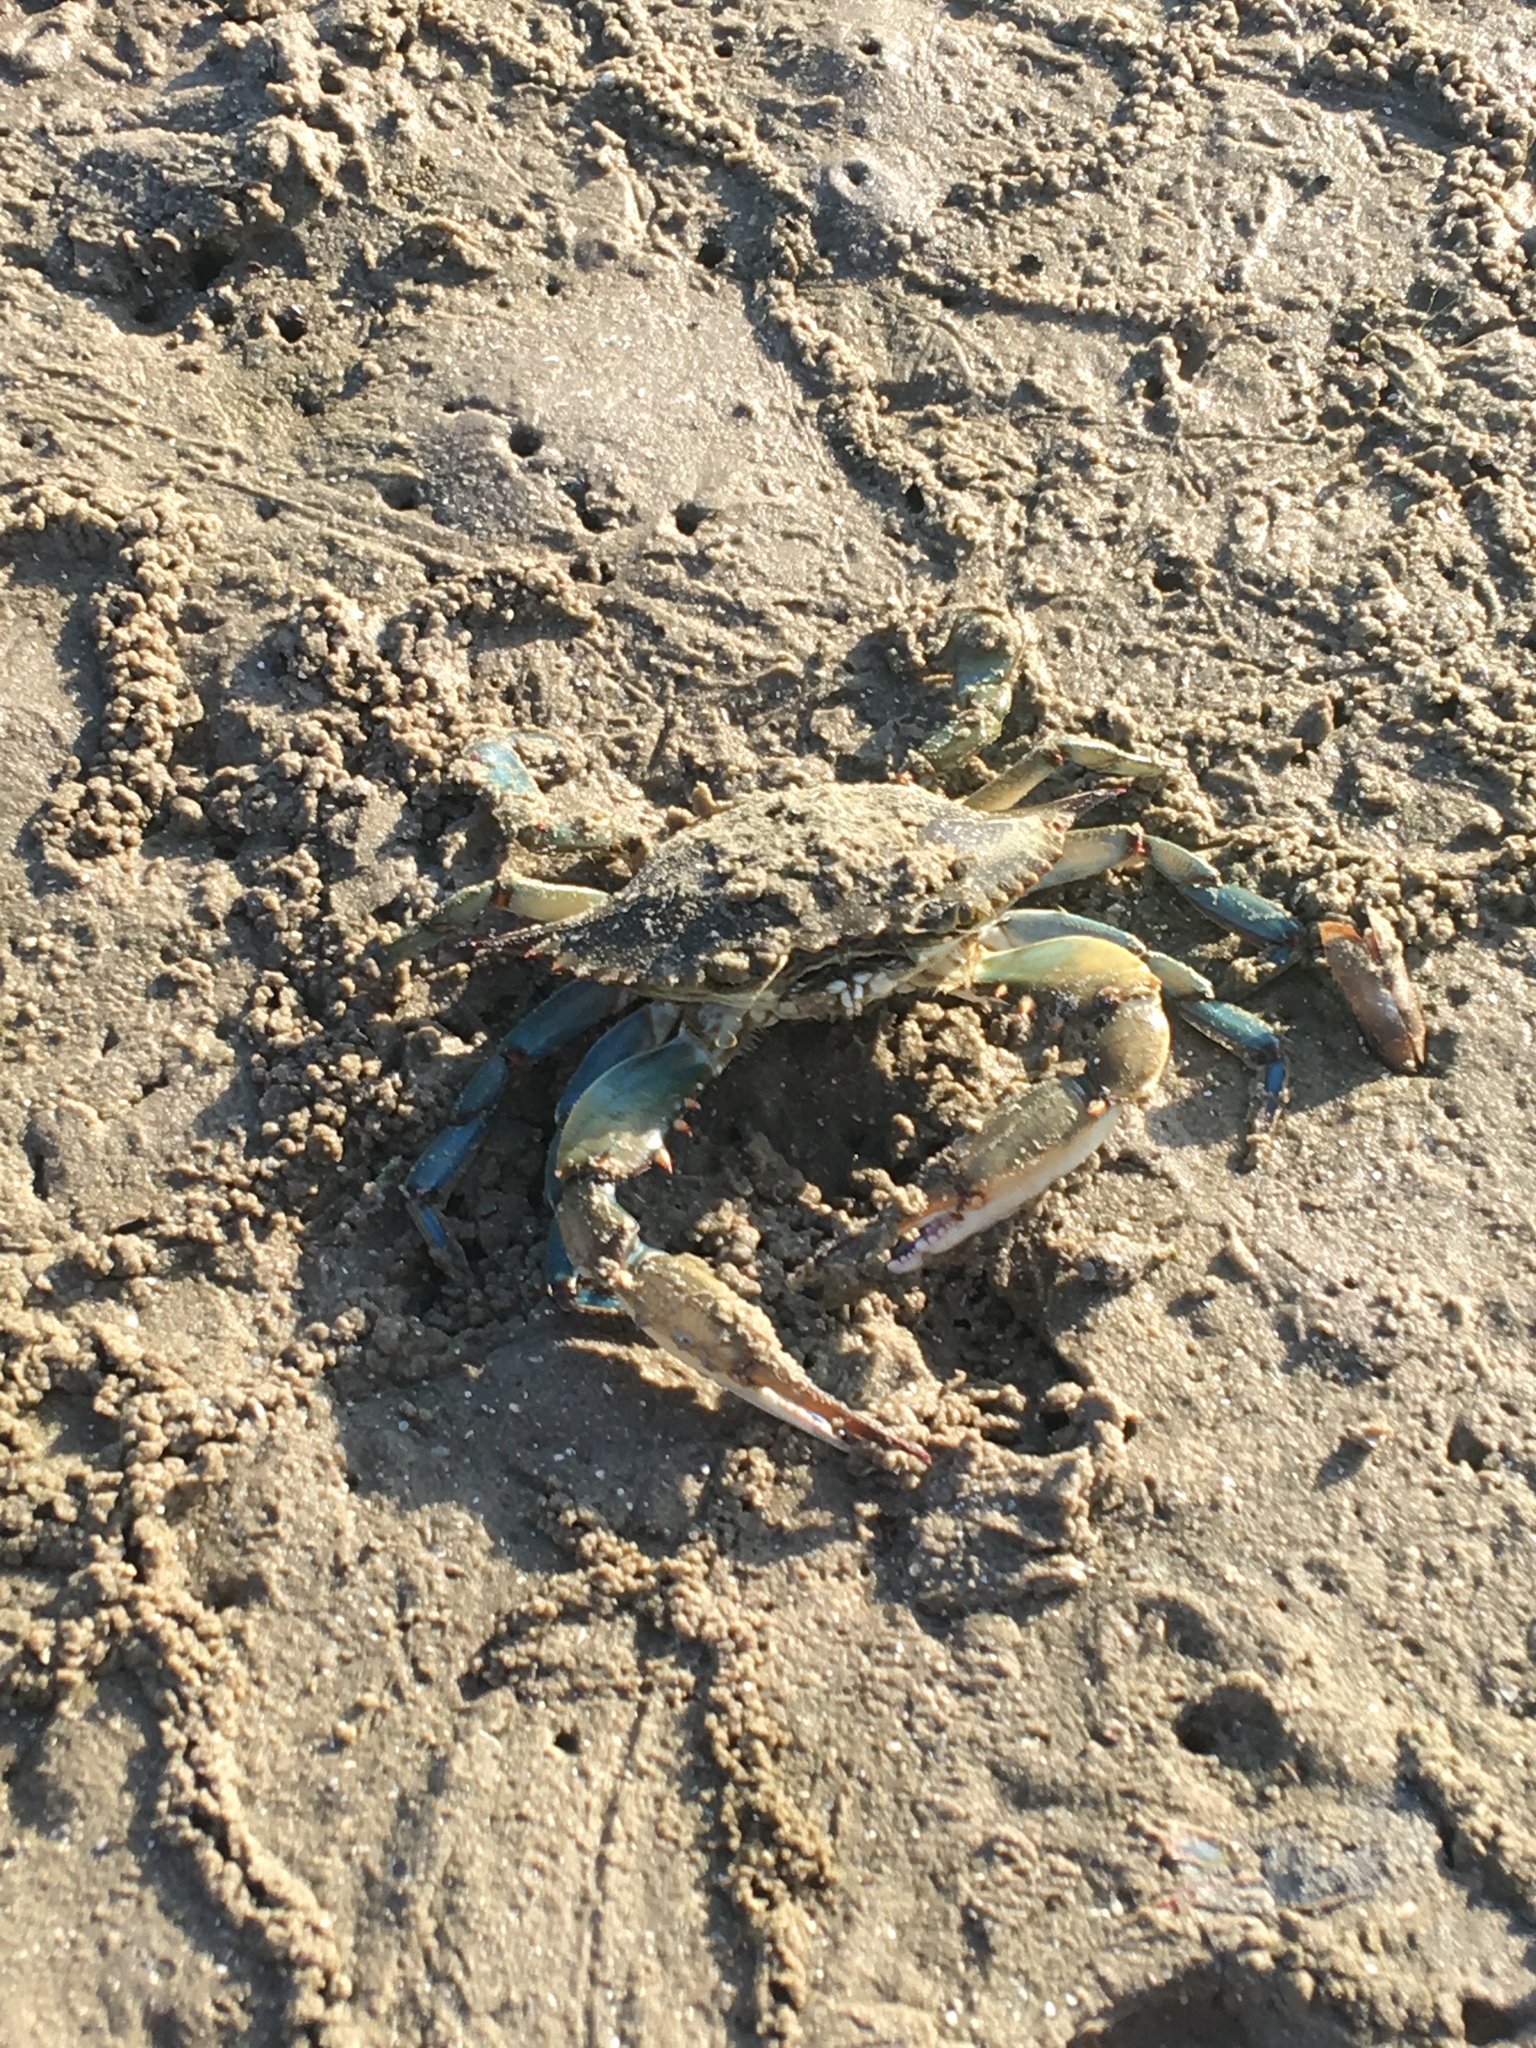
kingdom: Animalia
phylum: Arthropoda
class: Malacostraca
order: Decapoda
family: Portunidae
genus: Callinectes
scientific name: Callinectes sapidus
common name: Blue crab
